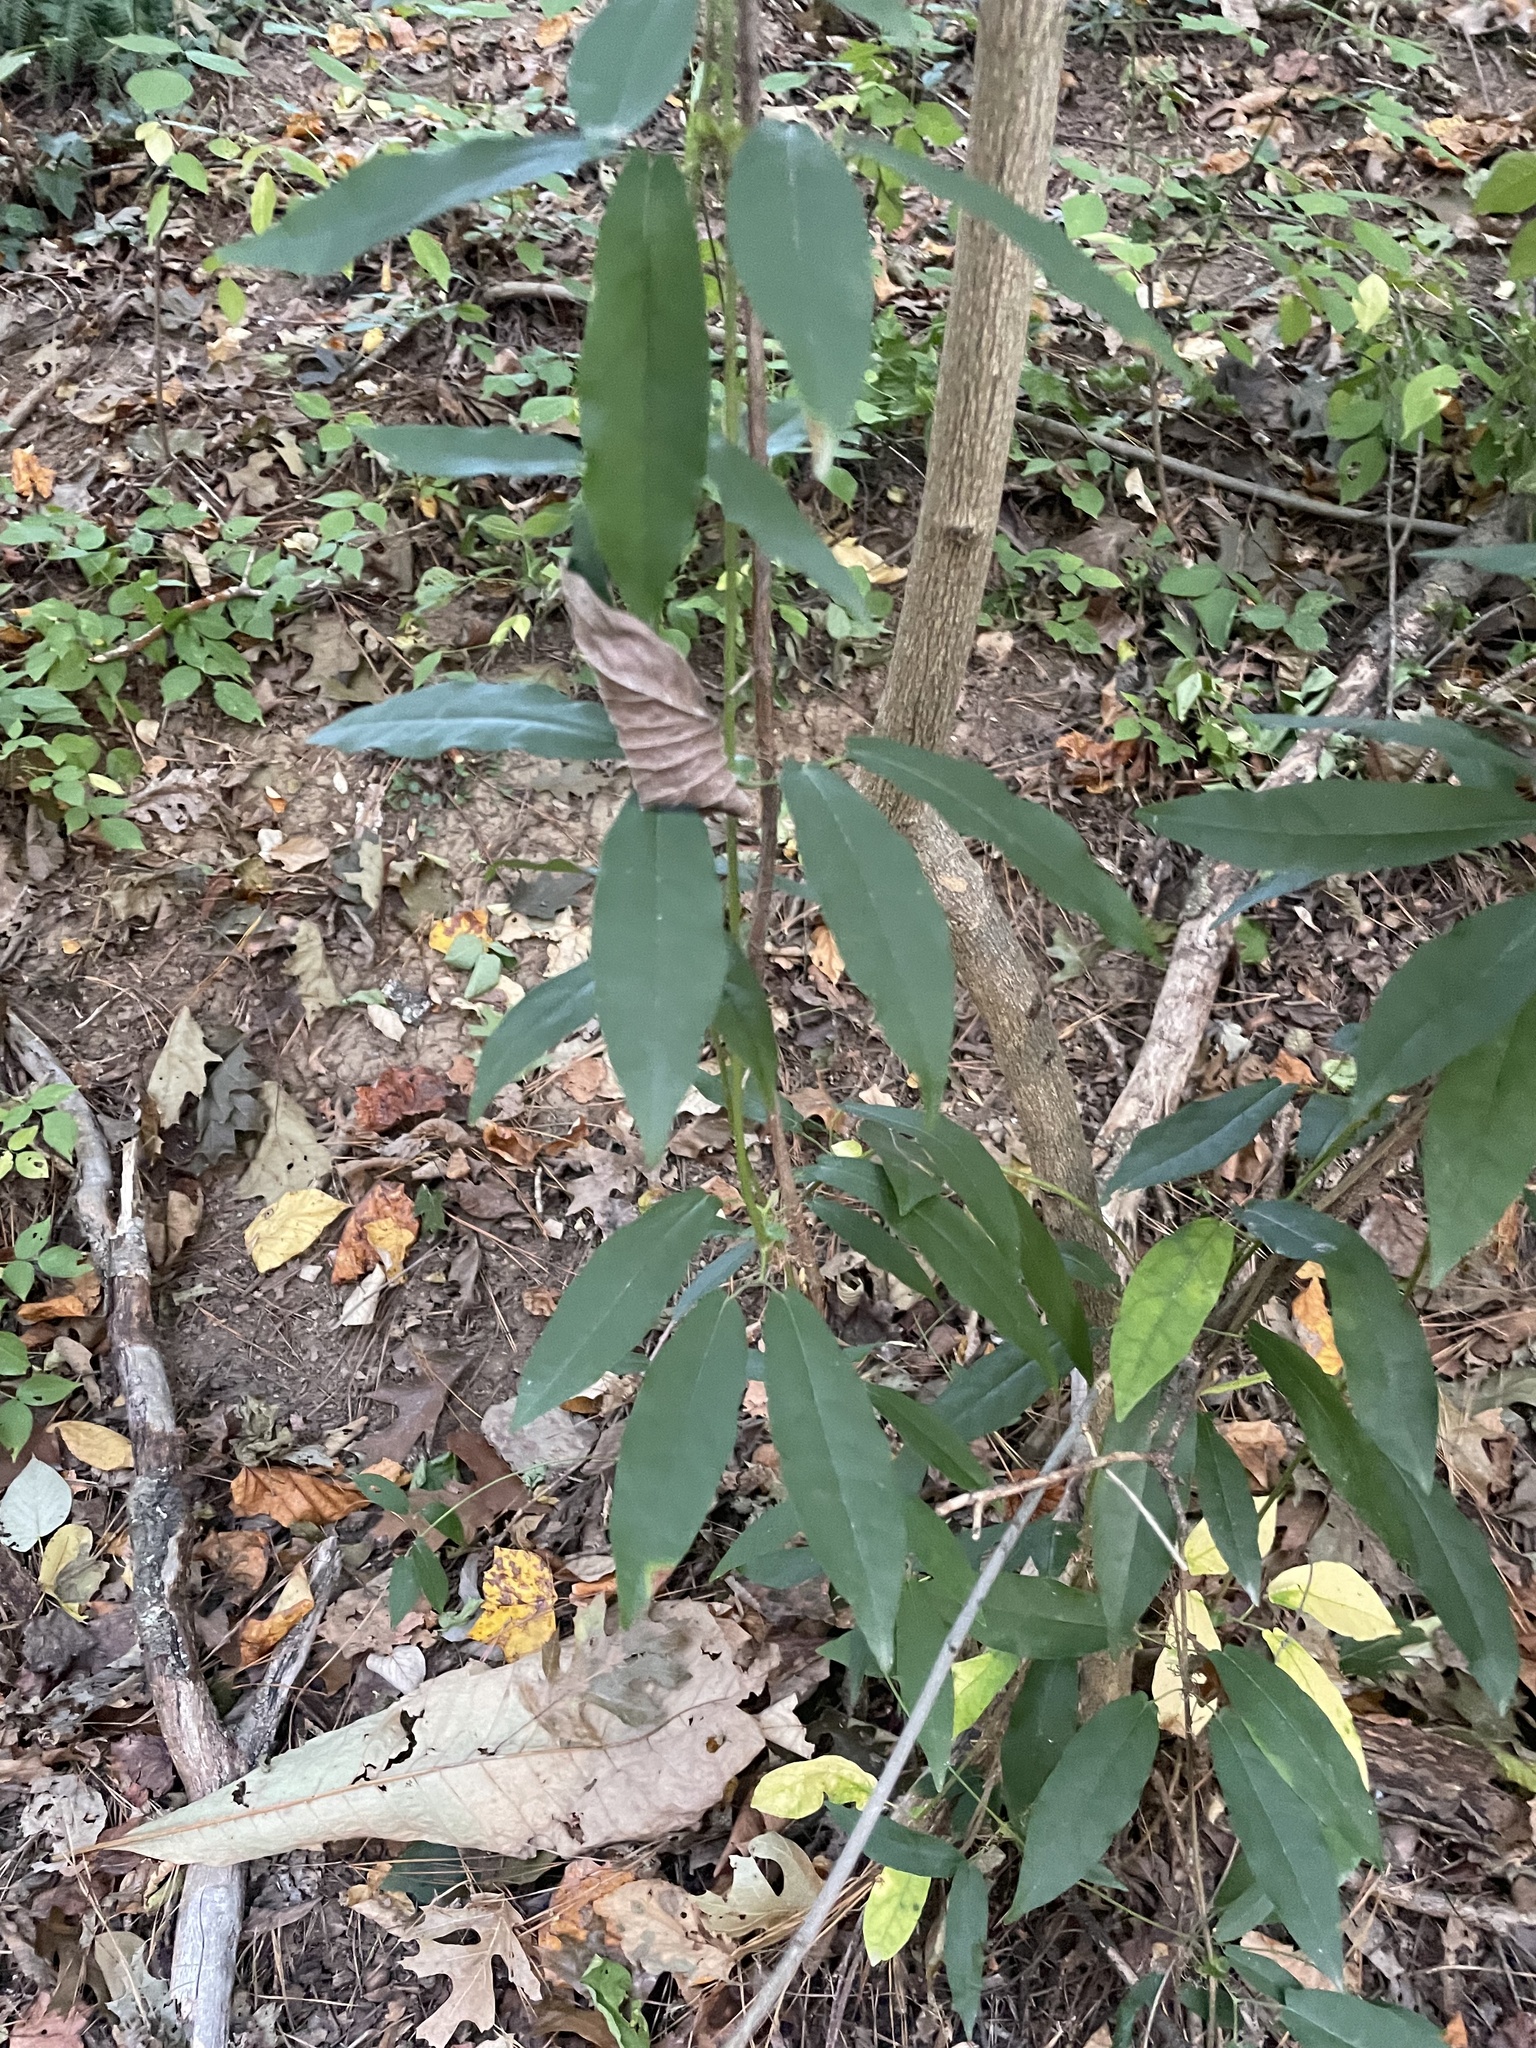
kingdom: Plantae
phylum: Tracheophyta
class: Magnoliopsida
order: Lamiales
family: Bignoniaceae
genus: Bignonia
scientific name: Bignonia capreolata
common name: Crossvine
